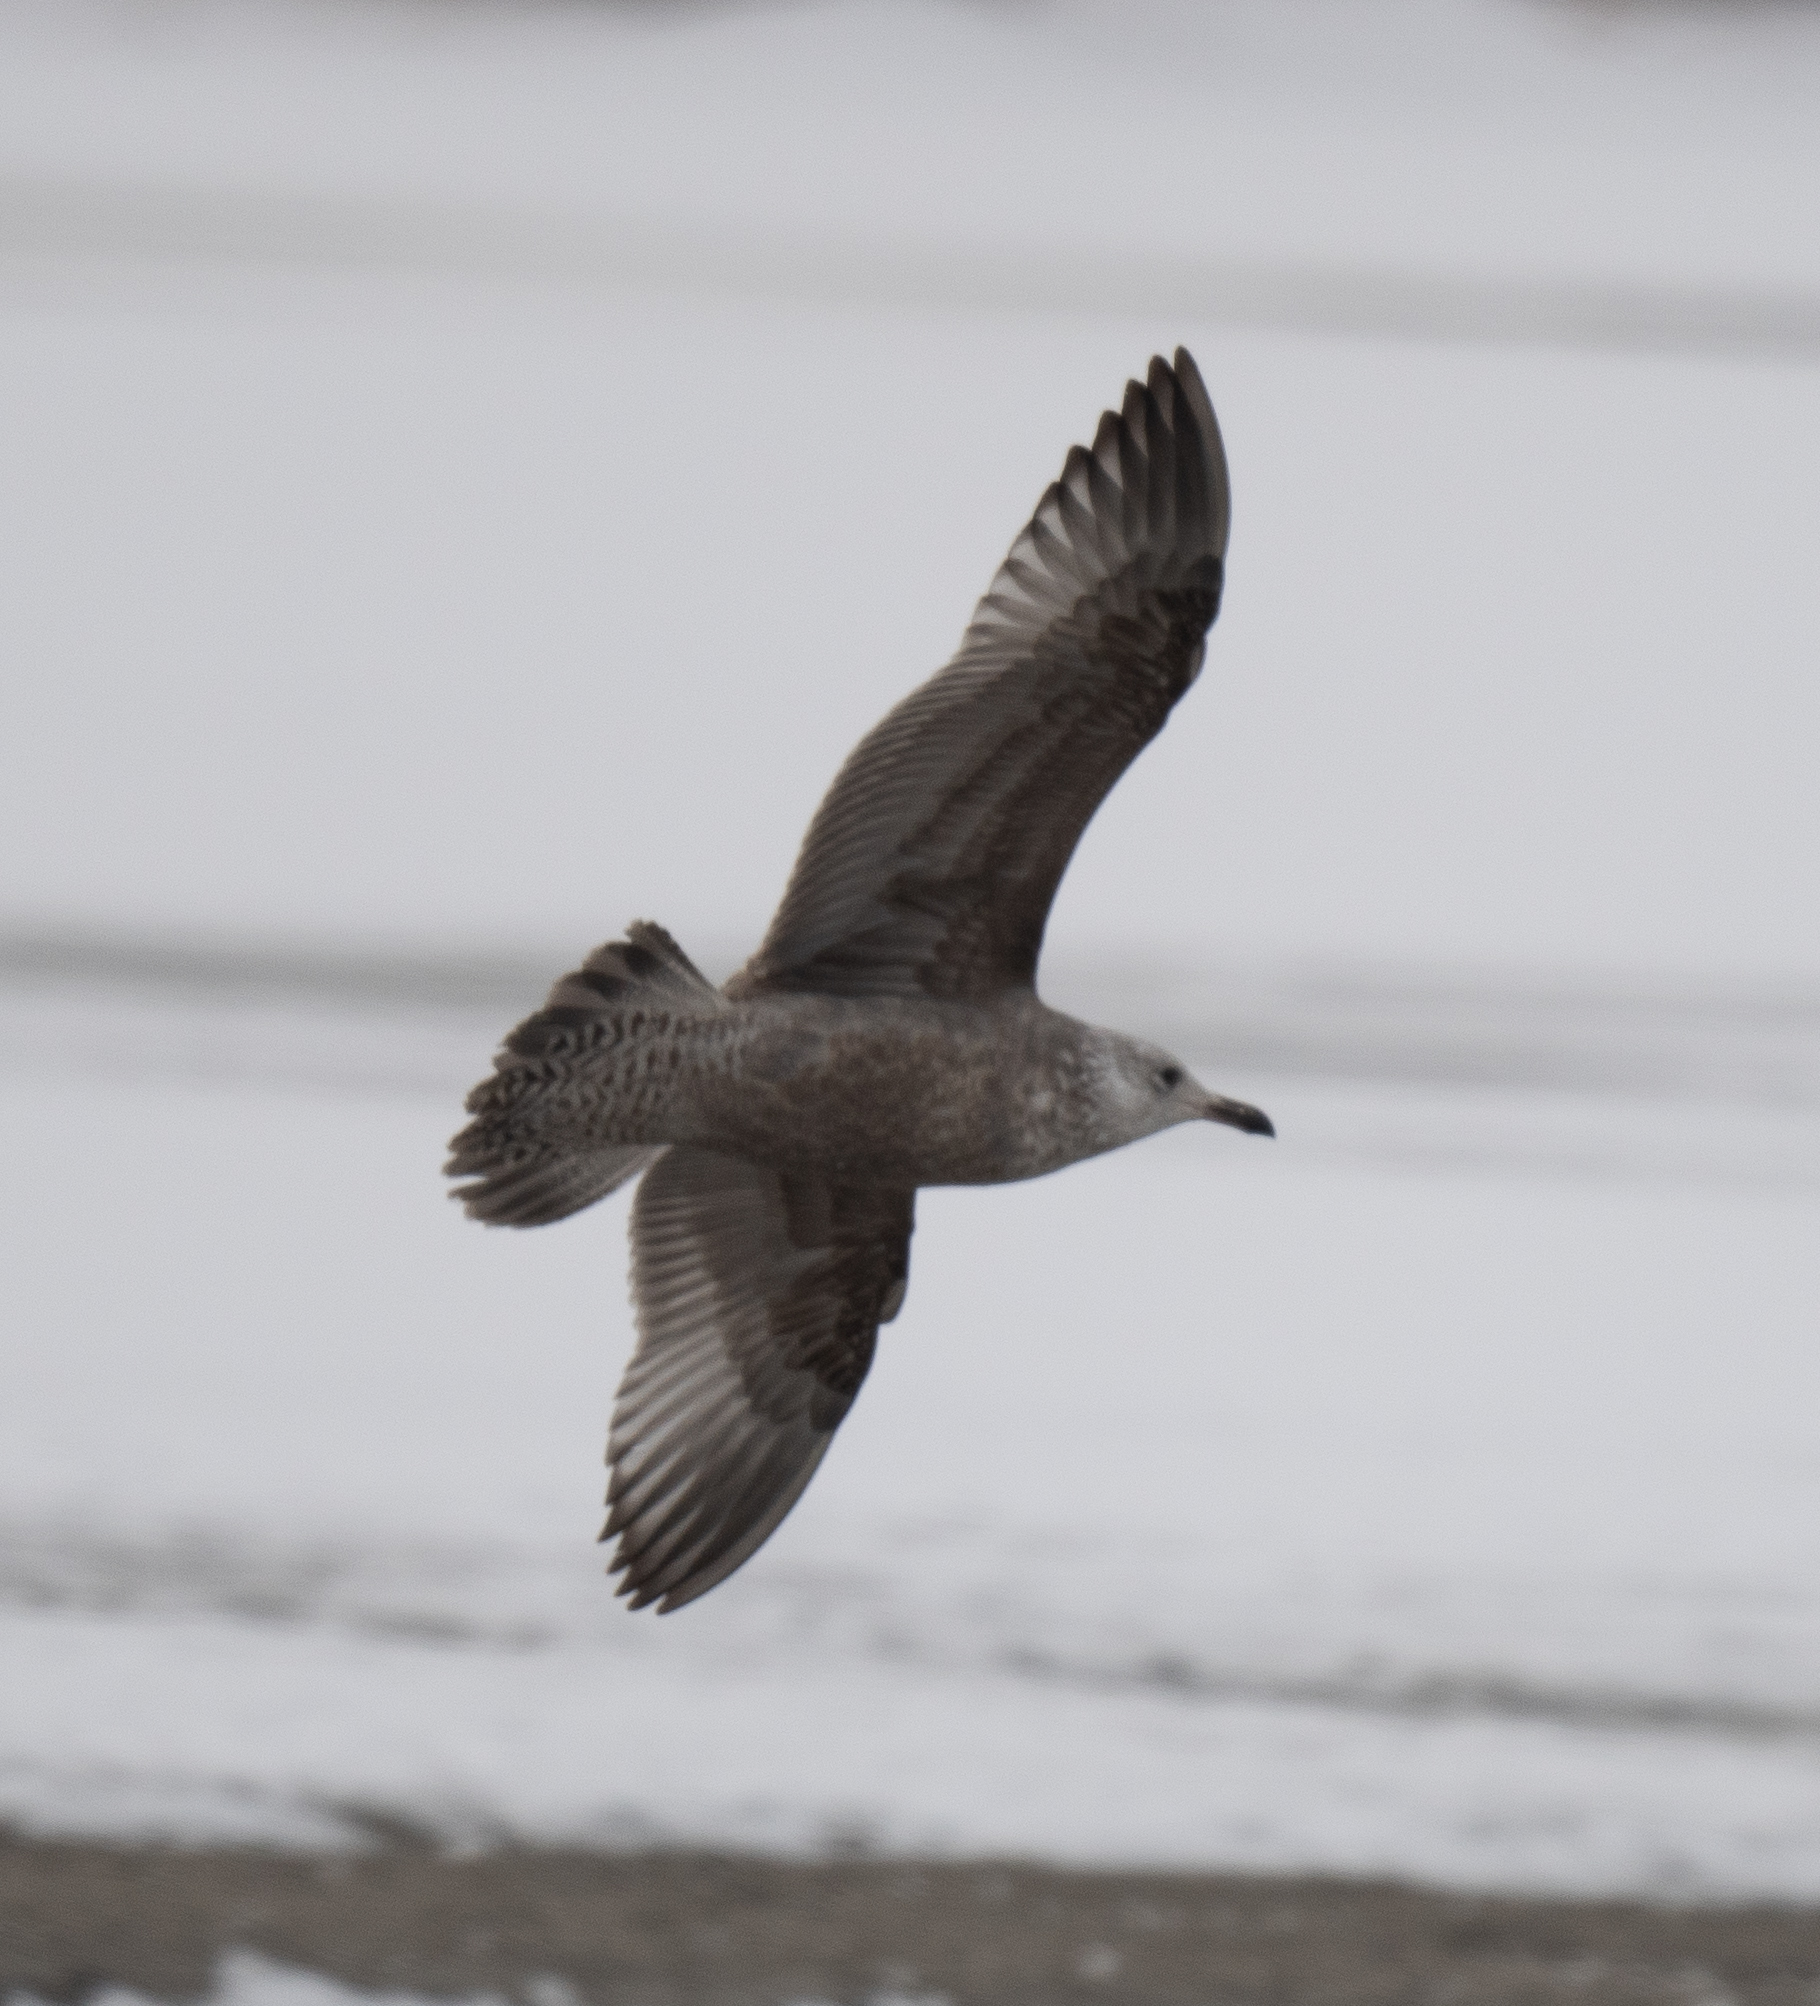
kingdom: Animalia
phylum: Chordata
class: Aves
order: Charadriiformes
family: Laridae
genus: Larus
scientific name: Larus argentatus
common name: Herring gull
